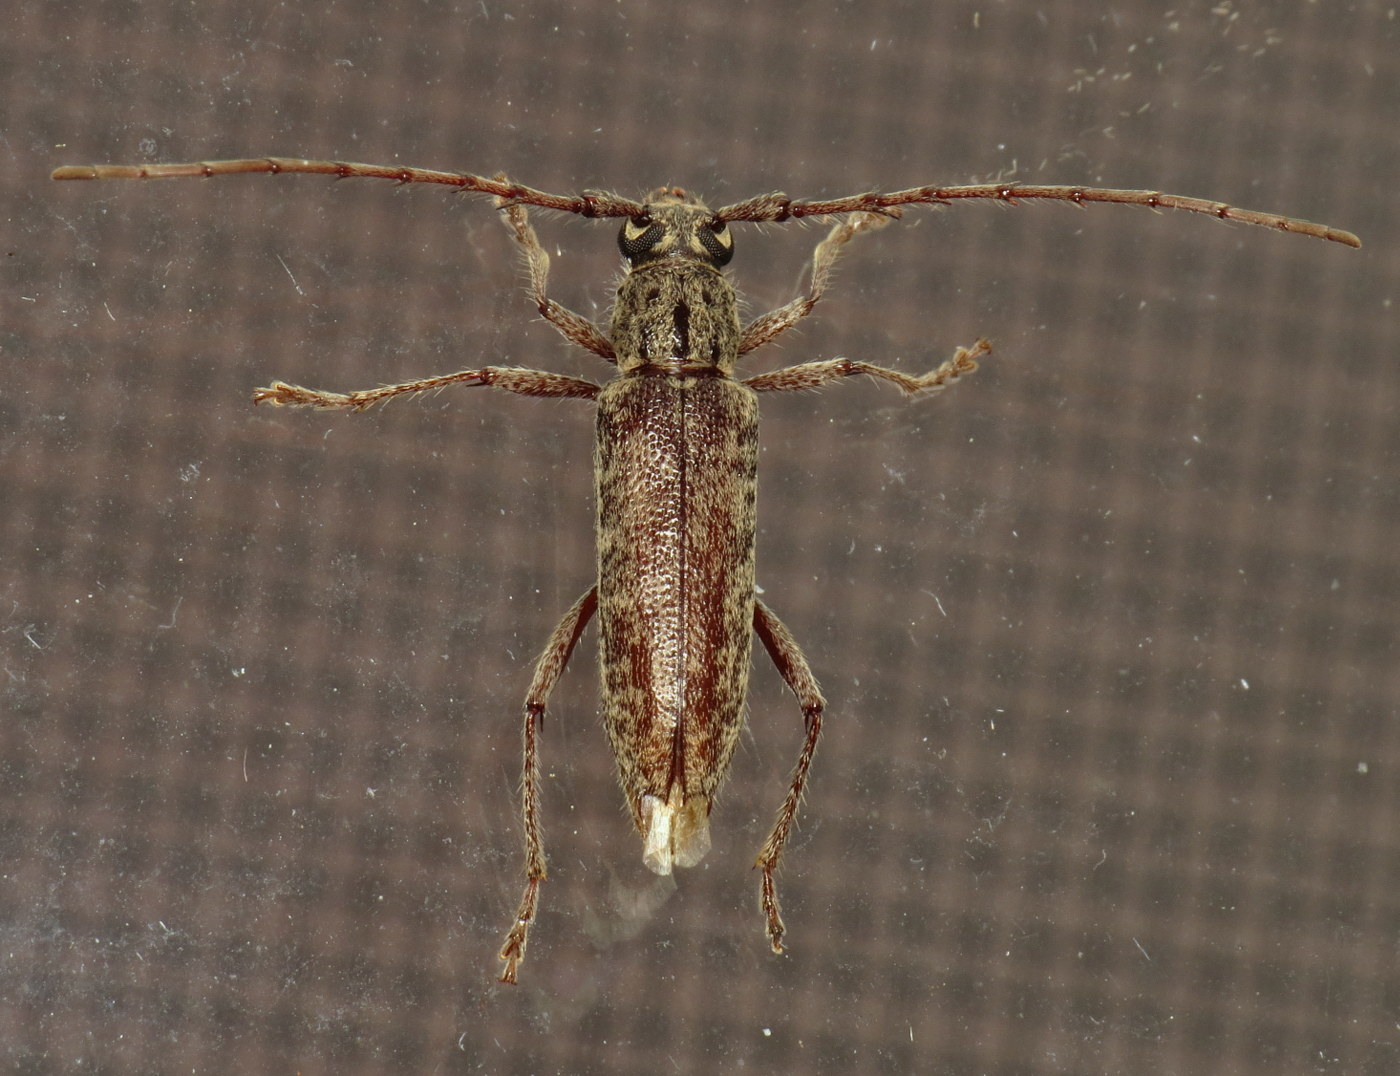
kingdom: Animalia
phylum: Arthropoda
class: Insecta
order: Coleoptera
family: Cerambycidae
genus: Elaphidion
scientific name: Elaphidion mucronatum
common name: Spined oak borer
